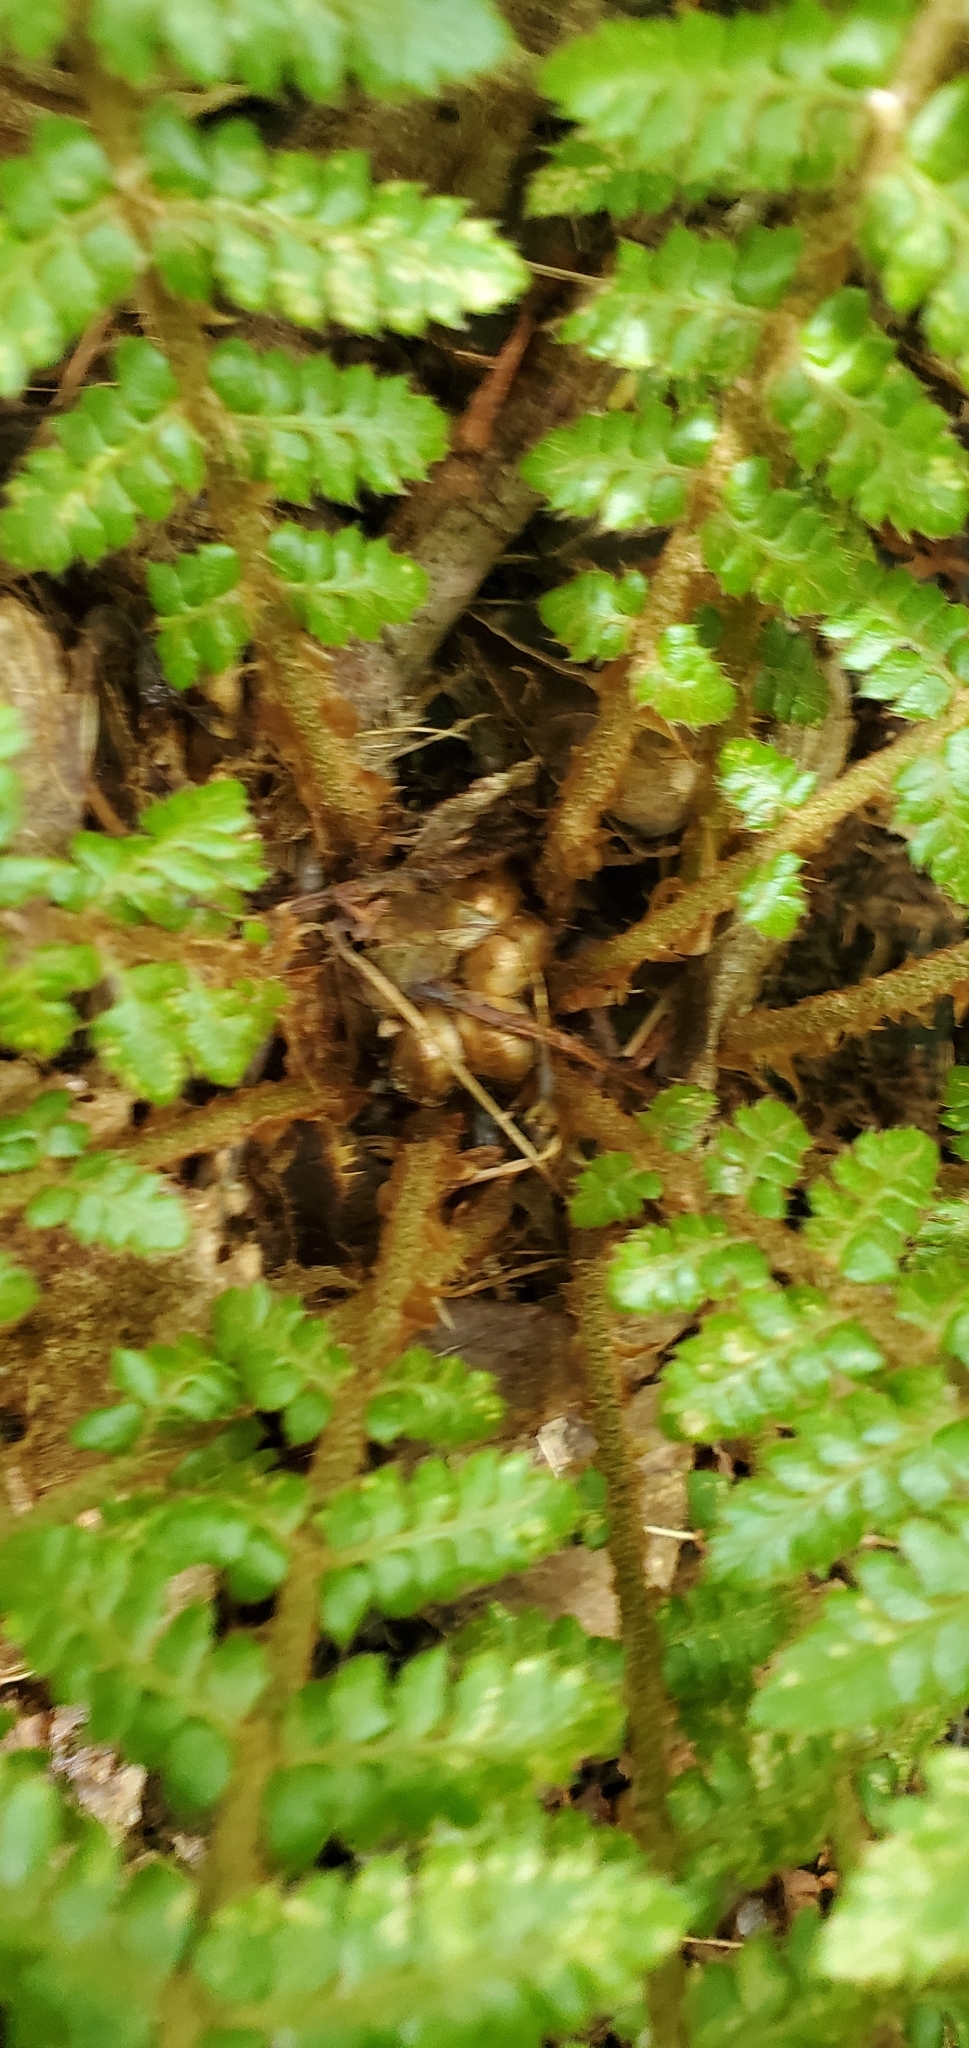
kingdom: Plantae
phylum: Tracheophyta
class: Polypodiopsida
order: Polypodiales
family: Dryopteridaceae
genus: Polystichum
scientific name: Polystichum braunii
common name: Braun's holly fern
